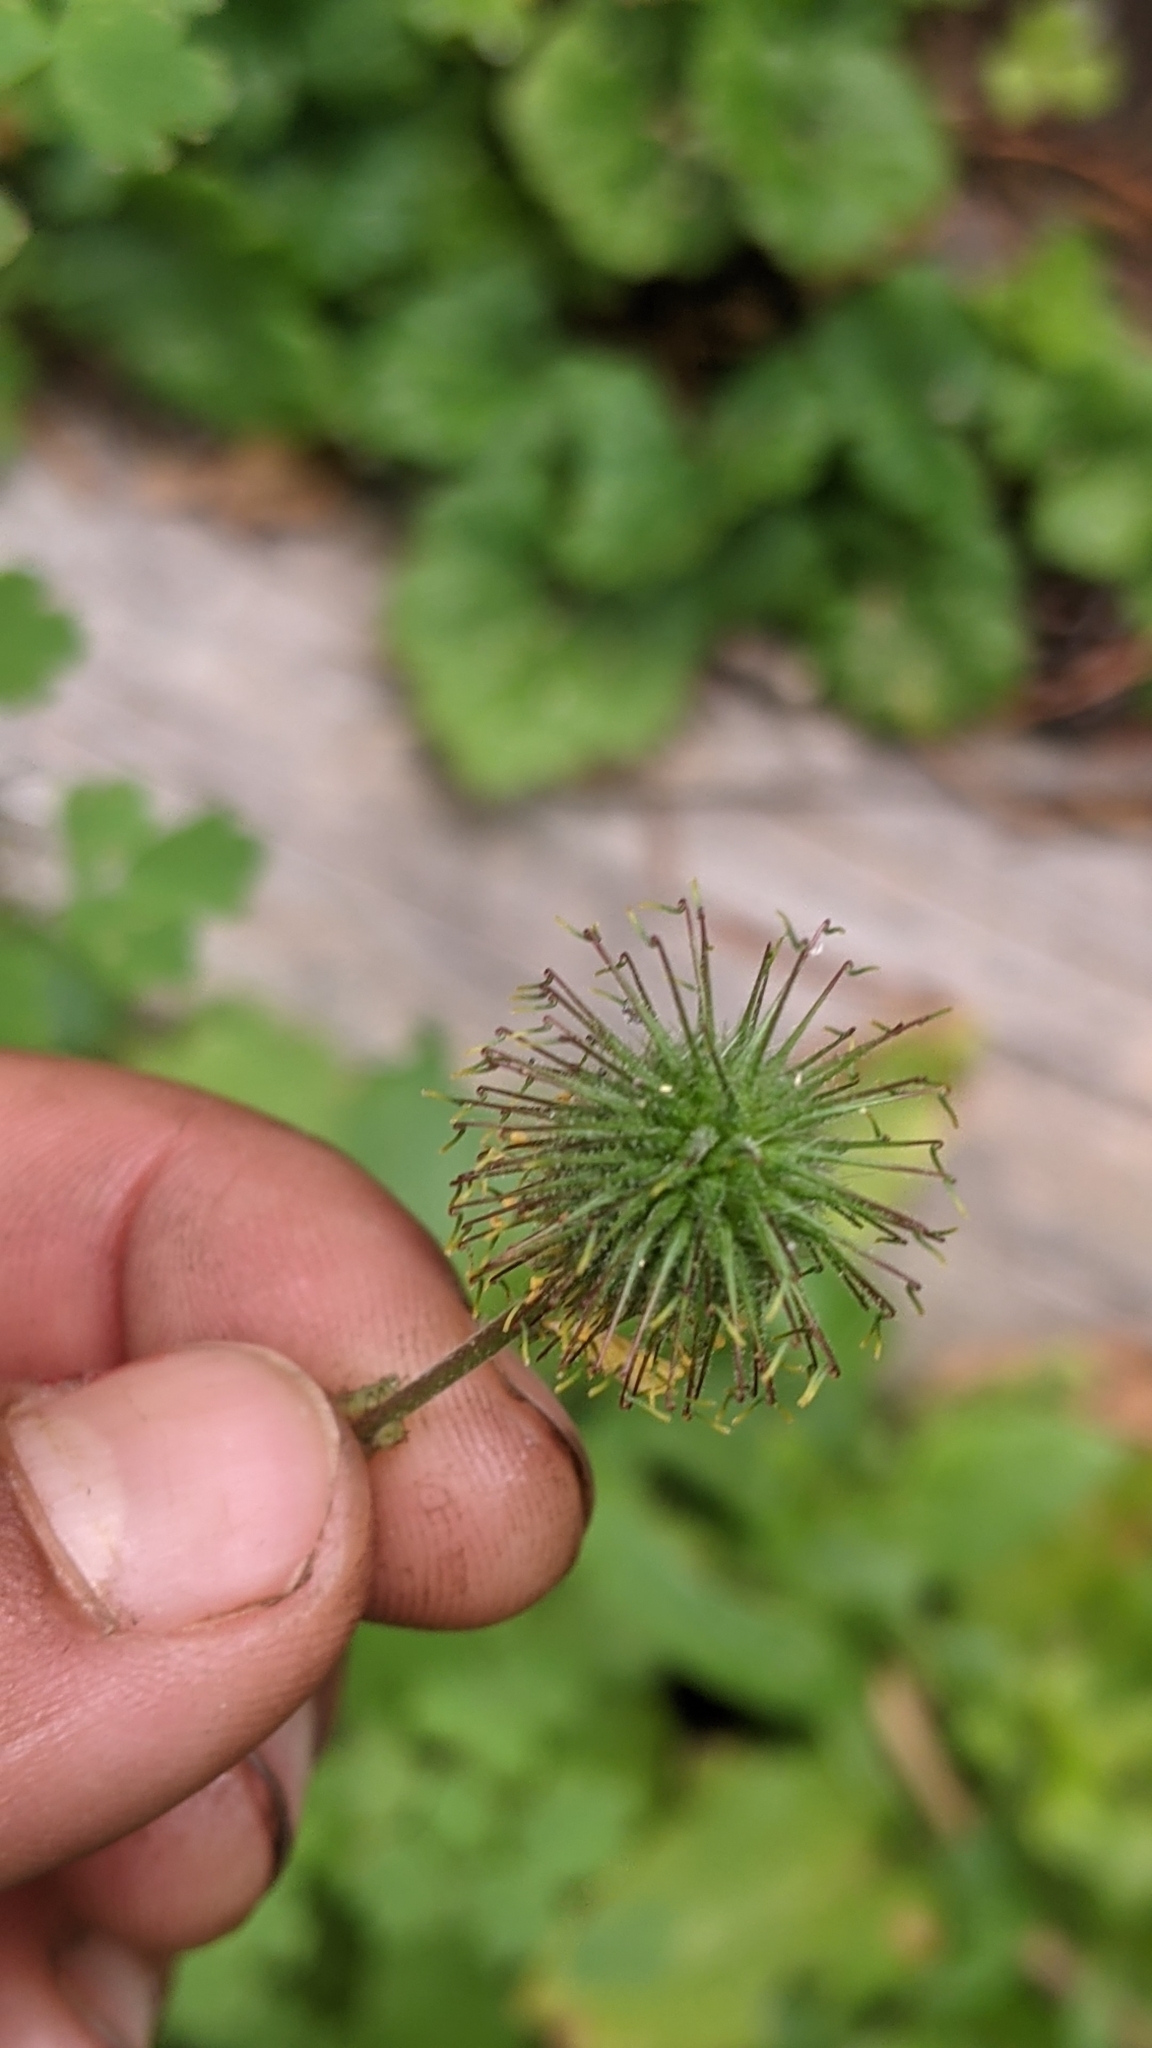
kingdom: Plantae
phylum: Tracheophyta
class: Magnoliopsida
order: Rosales
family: Rosaceae
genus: Geum
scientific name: Geum macrophyllum
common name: Large-leaved avens
